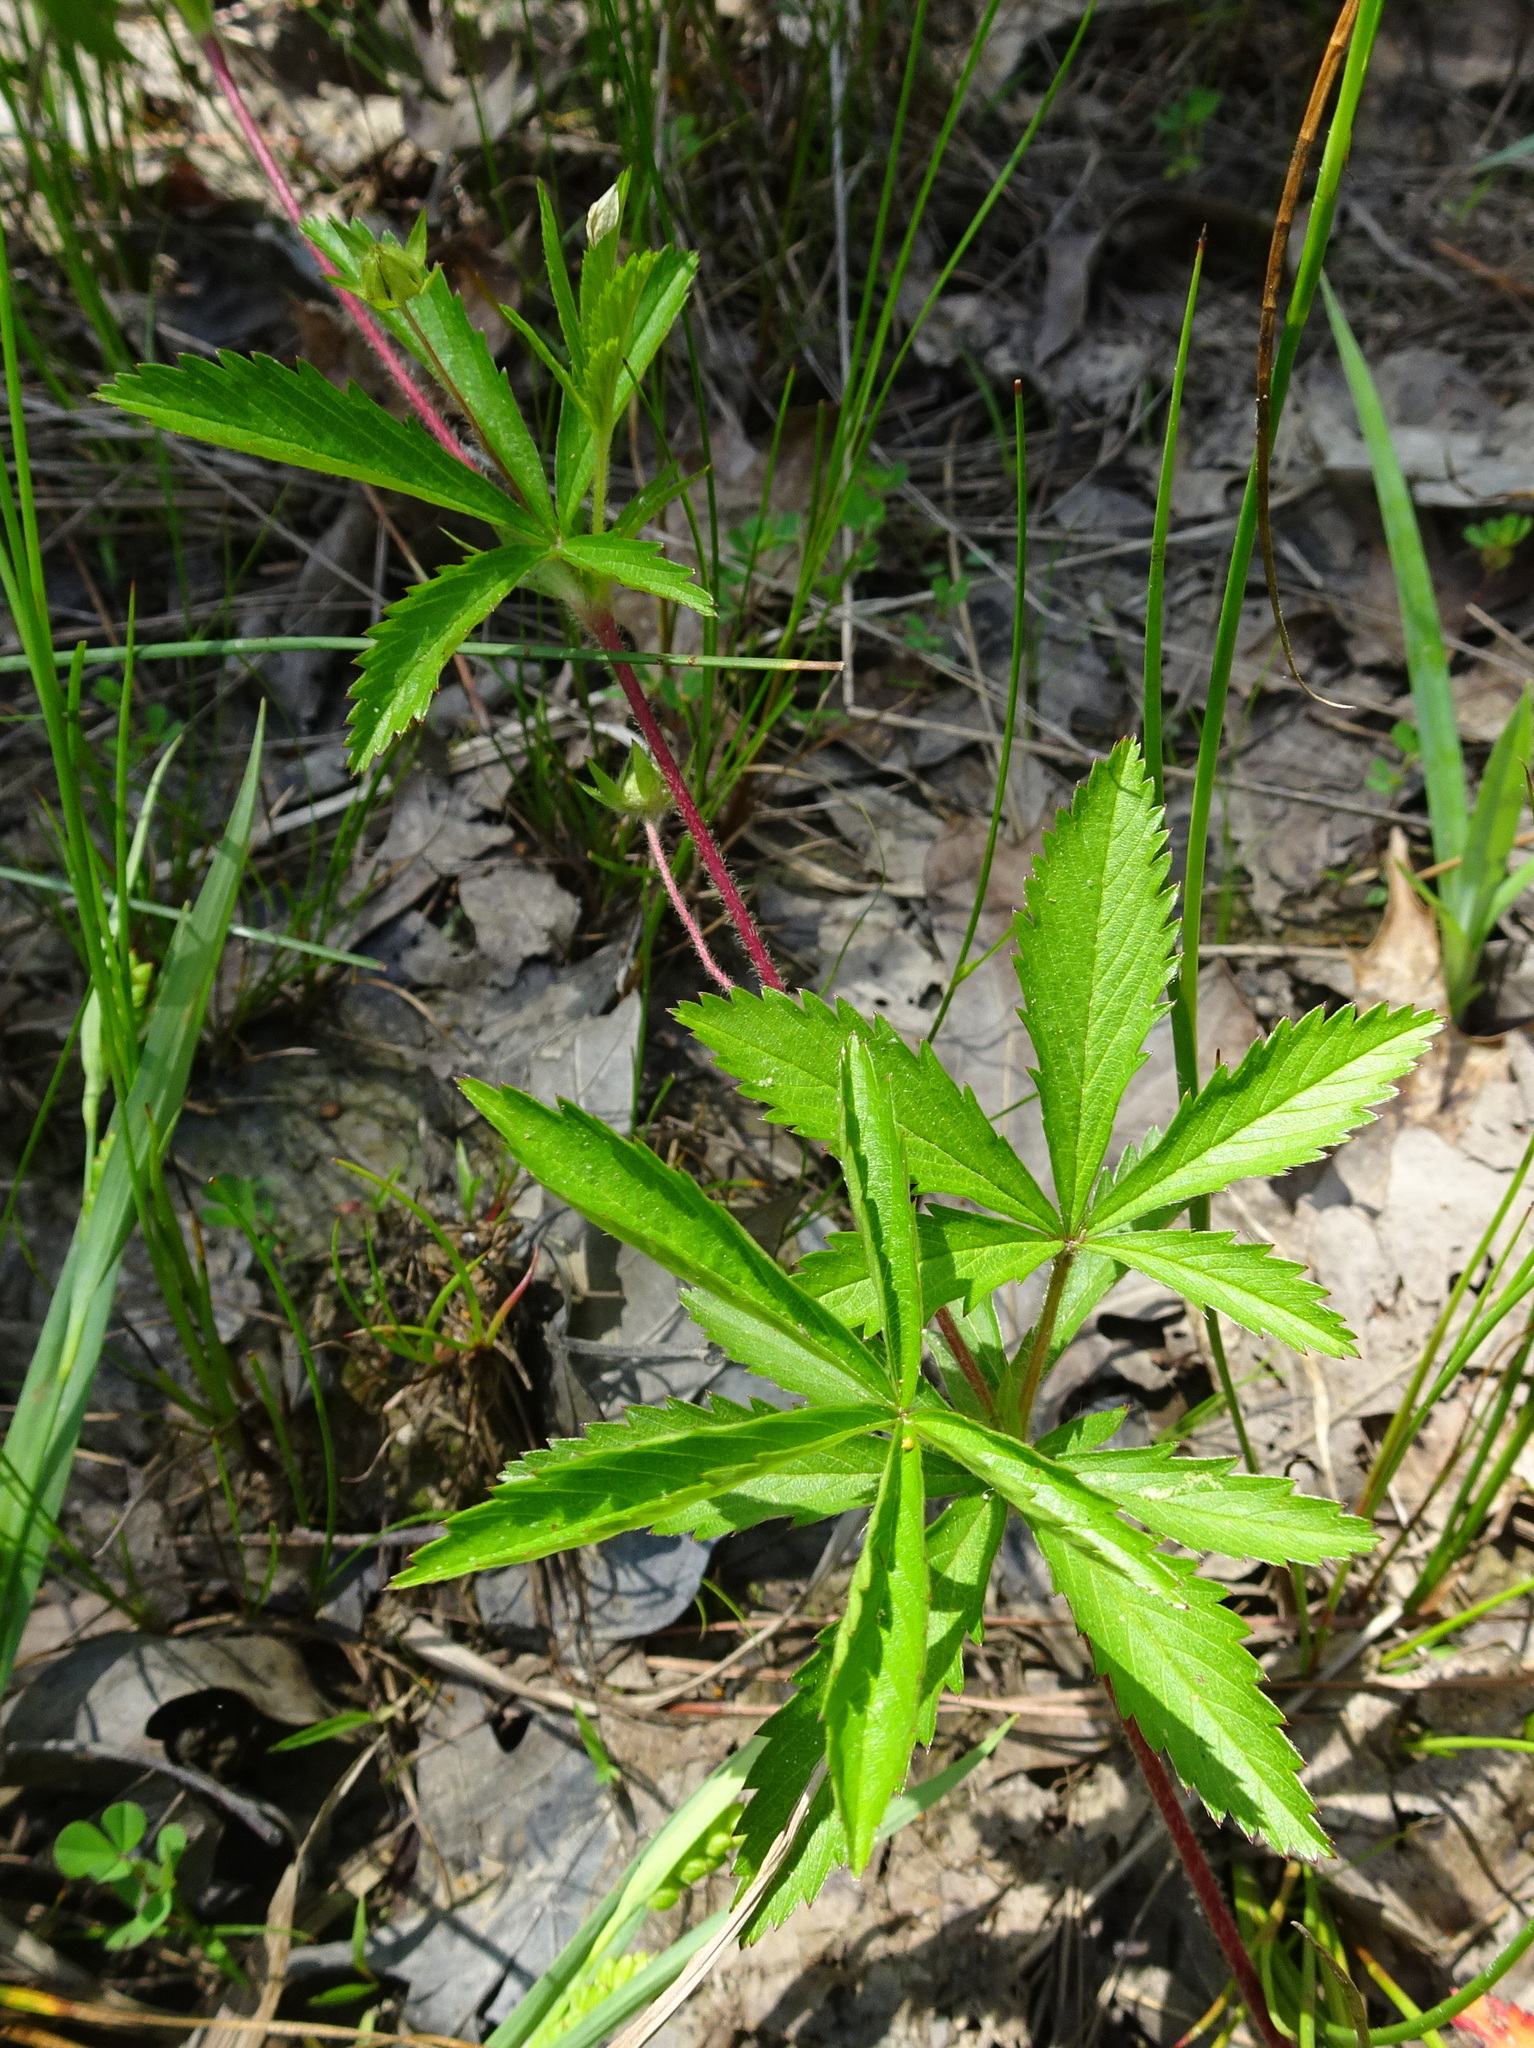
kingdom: Plantae
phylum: Tracheophyta
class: Magnoliopsida
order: Rosales
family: Rosaceae
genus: Potentilla
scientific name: Potentilla simplex
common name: Old field cinquefoil
